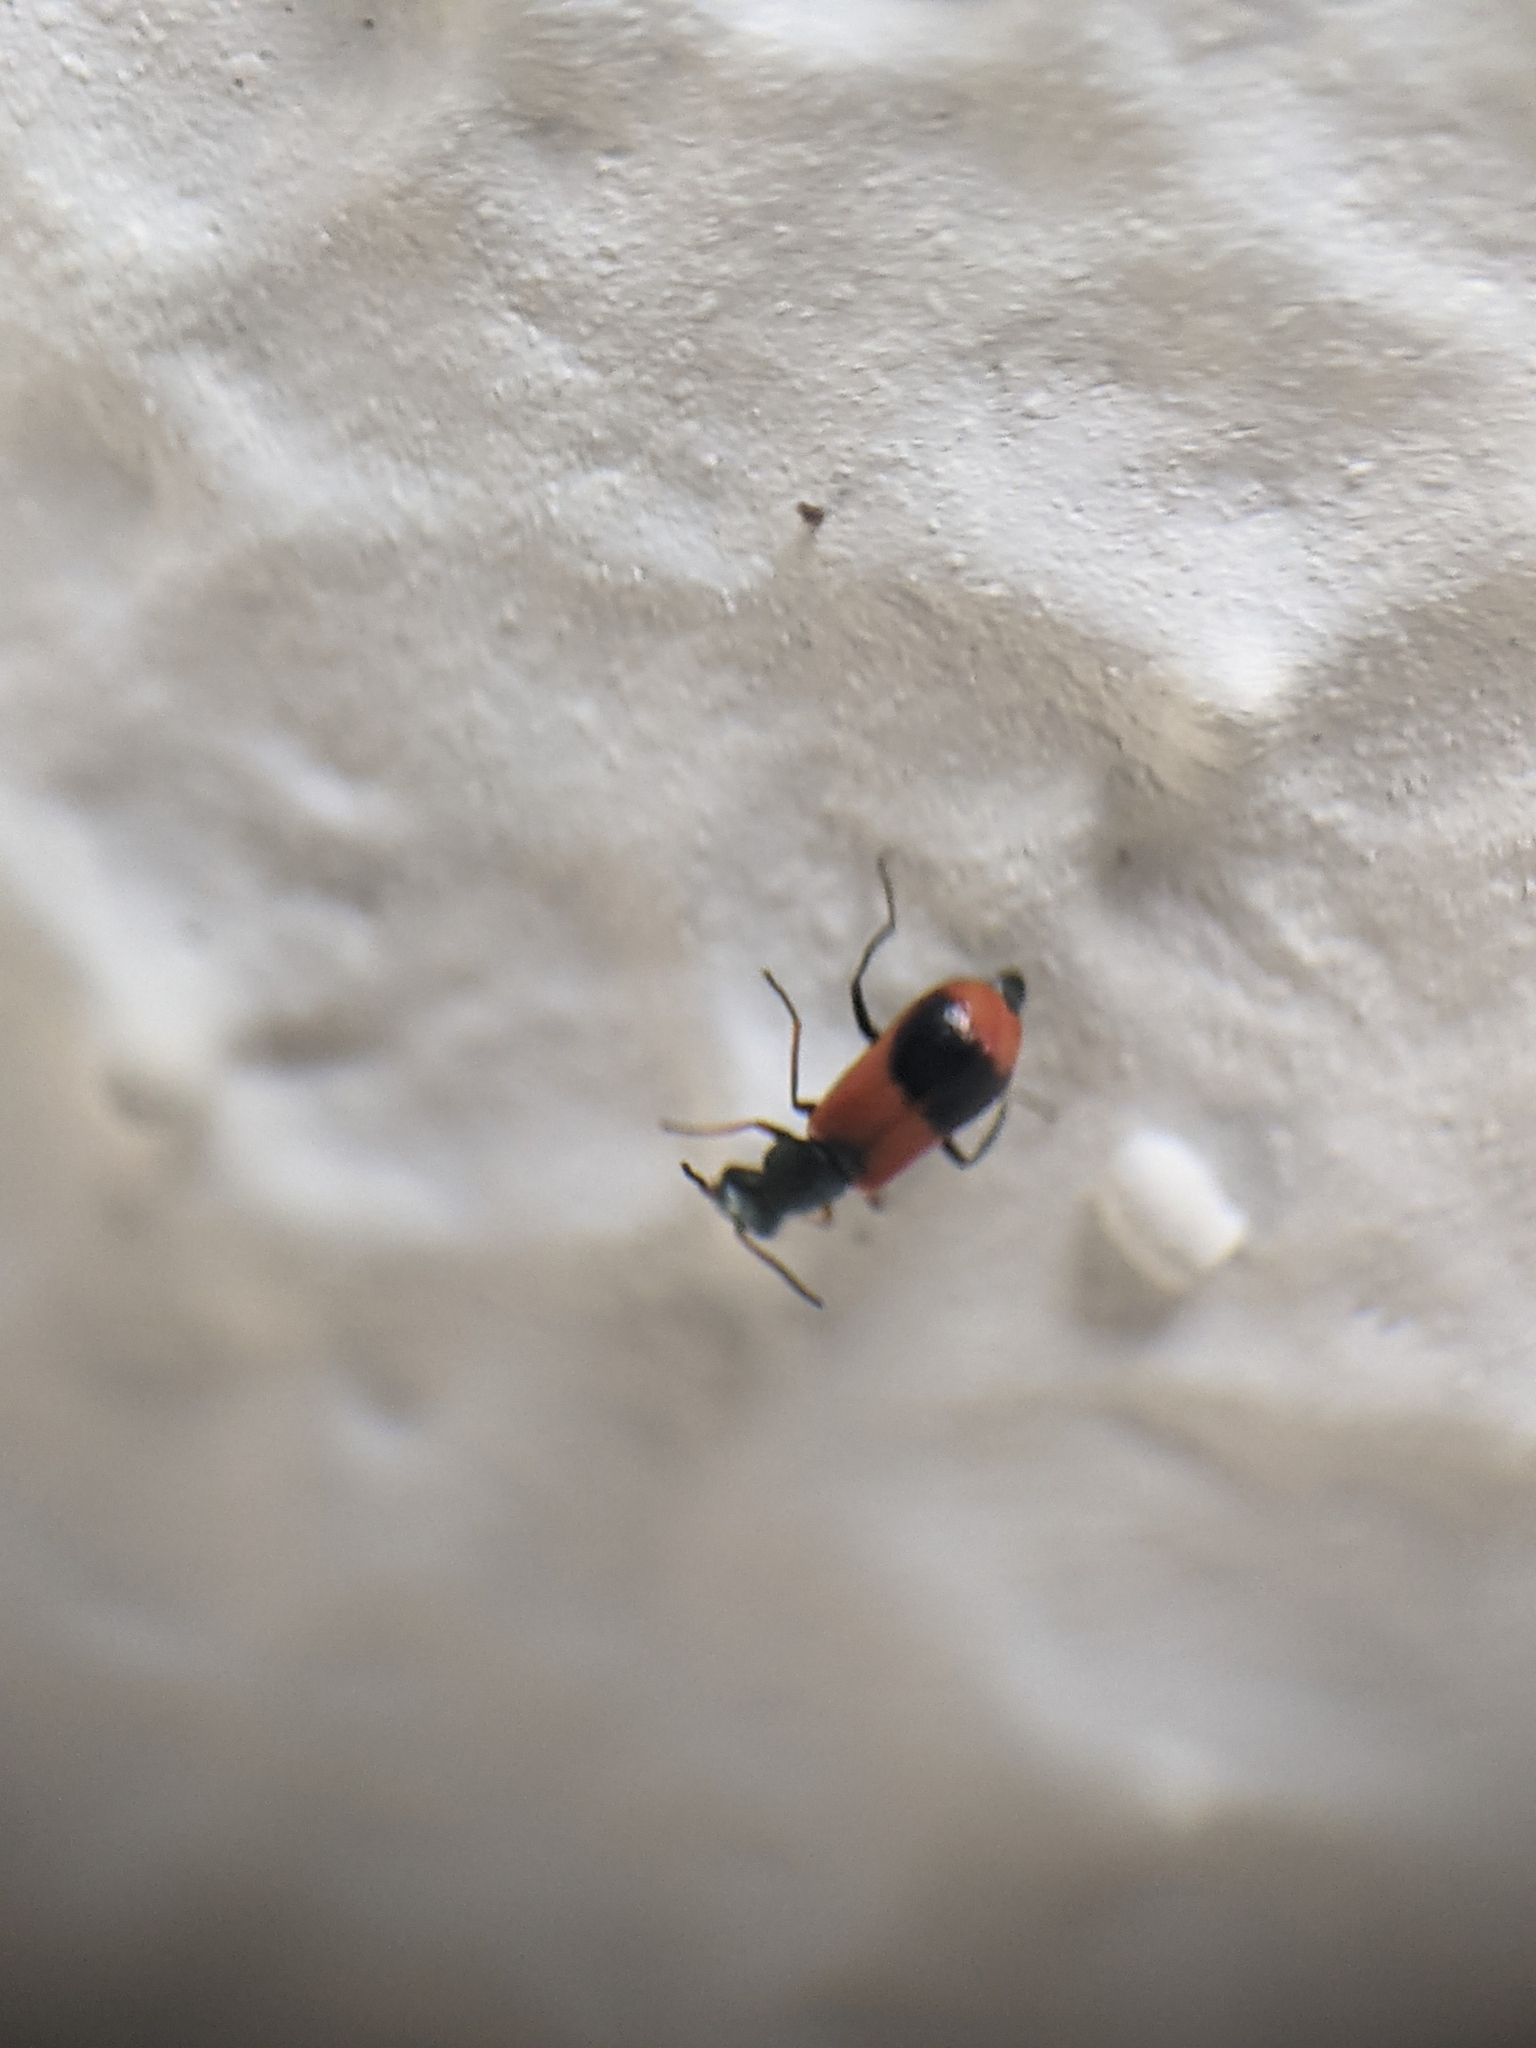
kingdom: Animalia
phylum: Arthropoda
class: Insecta
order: Coleoptera
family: Melyridae
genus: Anthocomus
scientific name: Anthocomus equestris
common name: Black-banded soft-winged flower beetle
